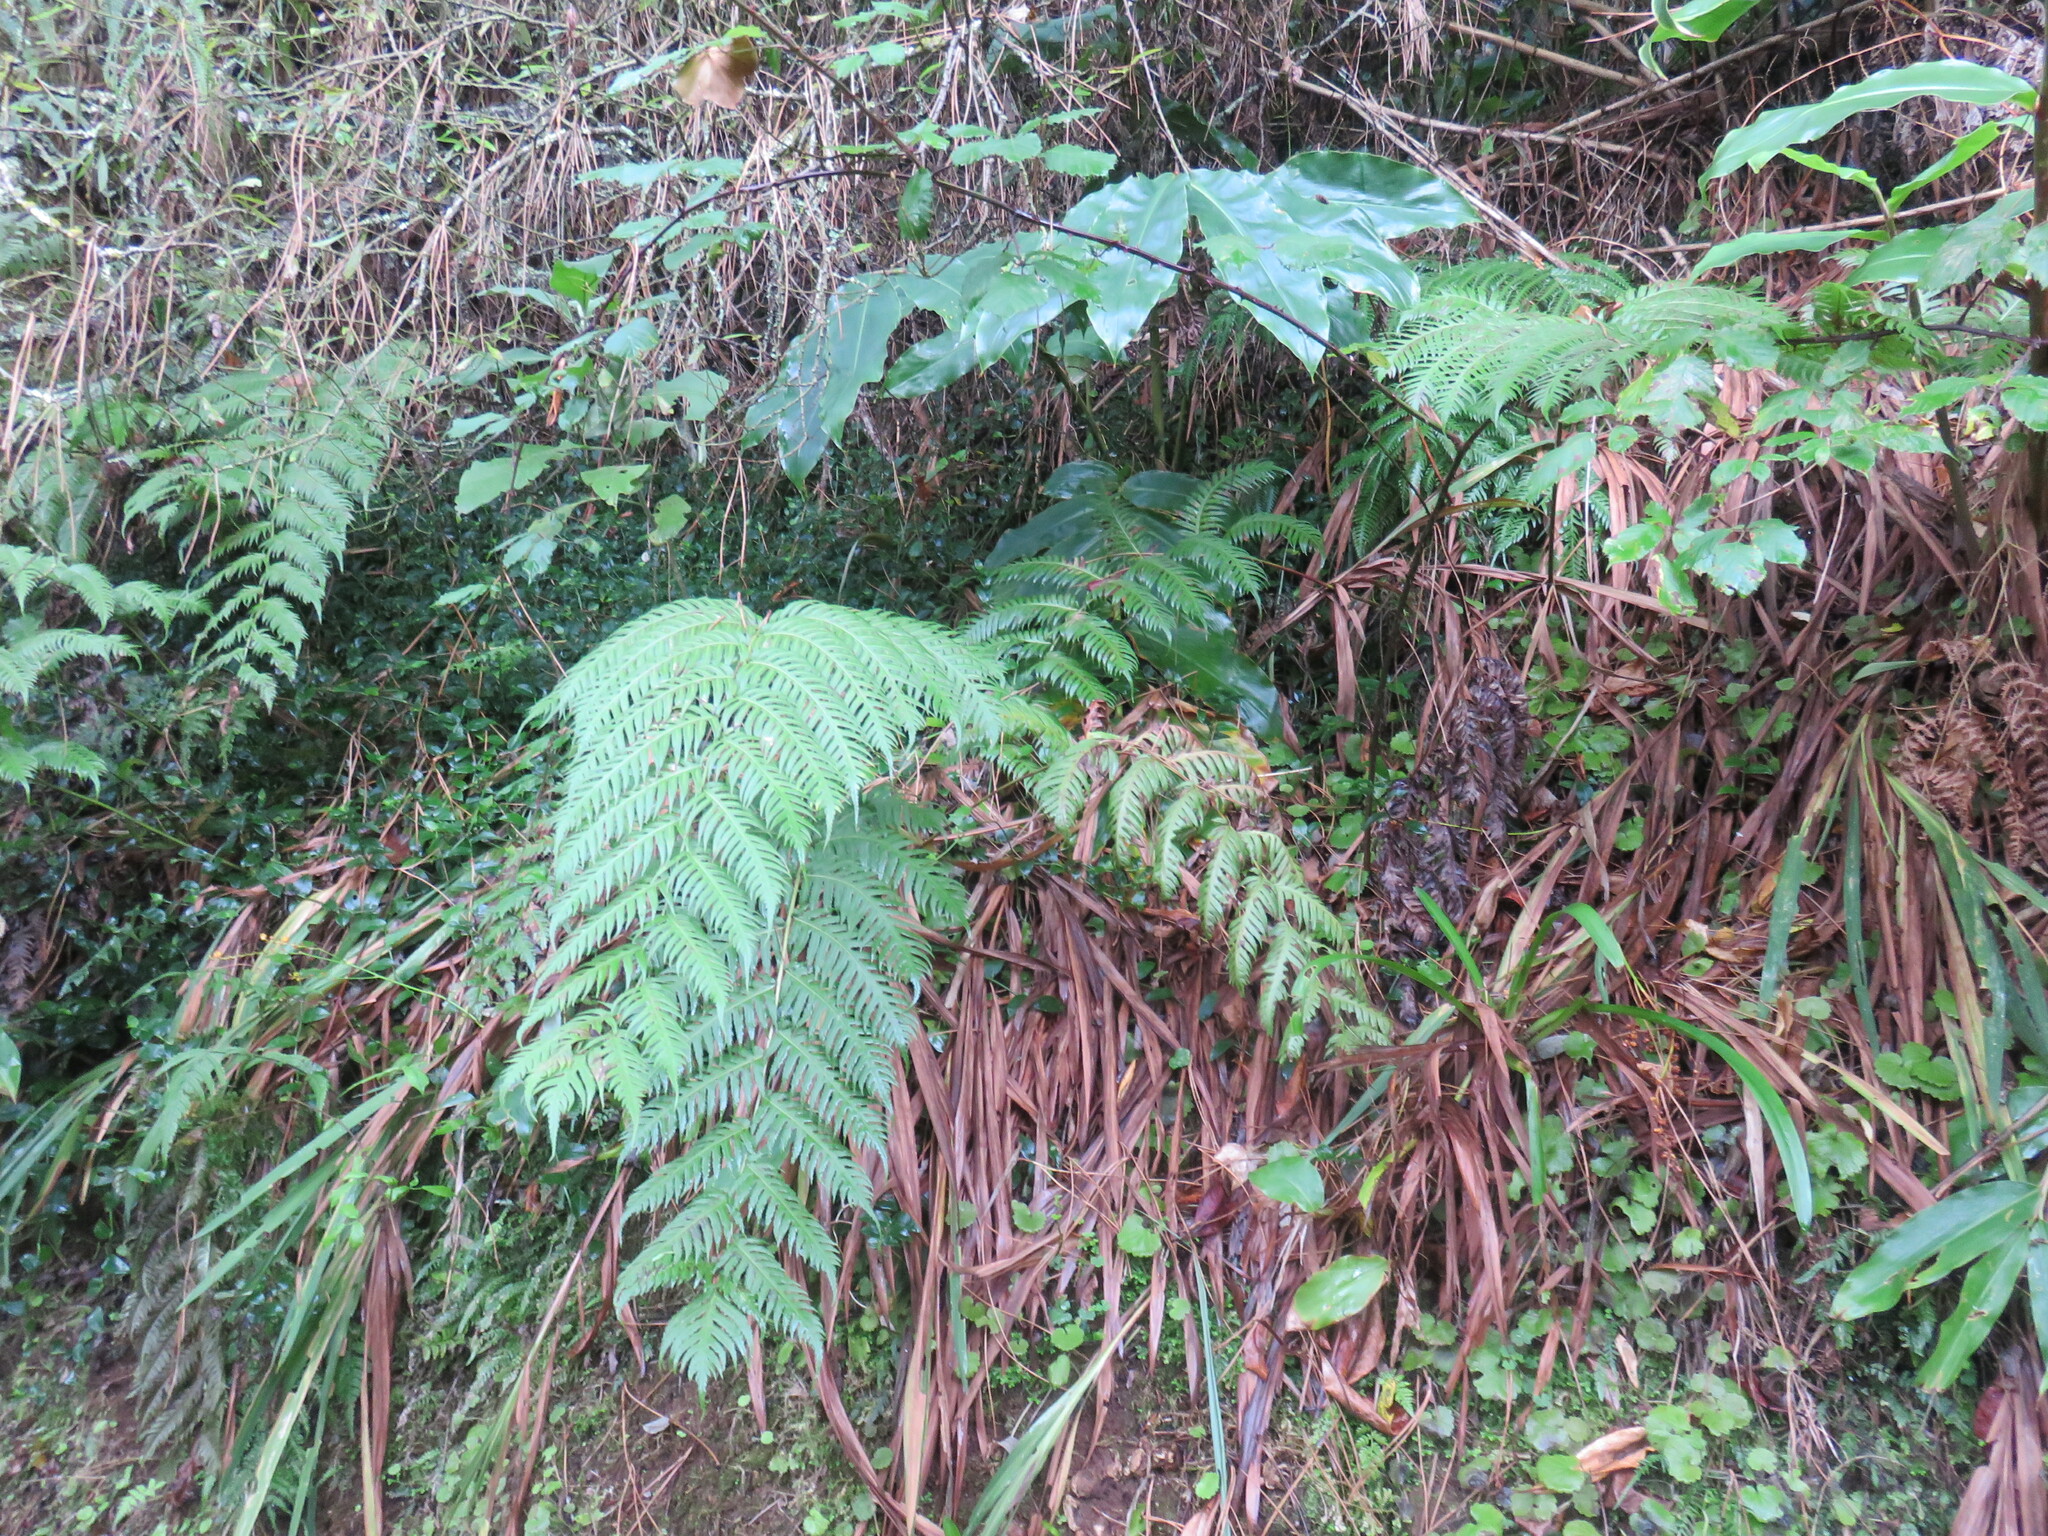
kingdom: Plantae
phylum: Tracheophyta
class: Polypodiopsida
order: Polypodiales
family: Blechnaceae
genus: Woodwardia
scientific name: Woodwardia radicans
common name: Rooting chainfern
